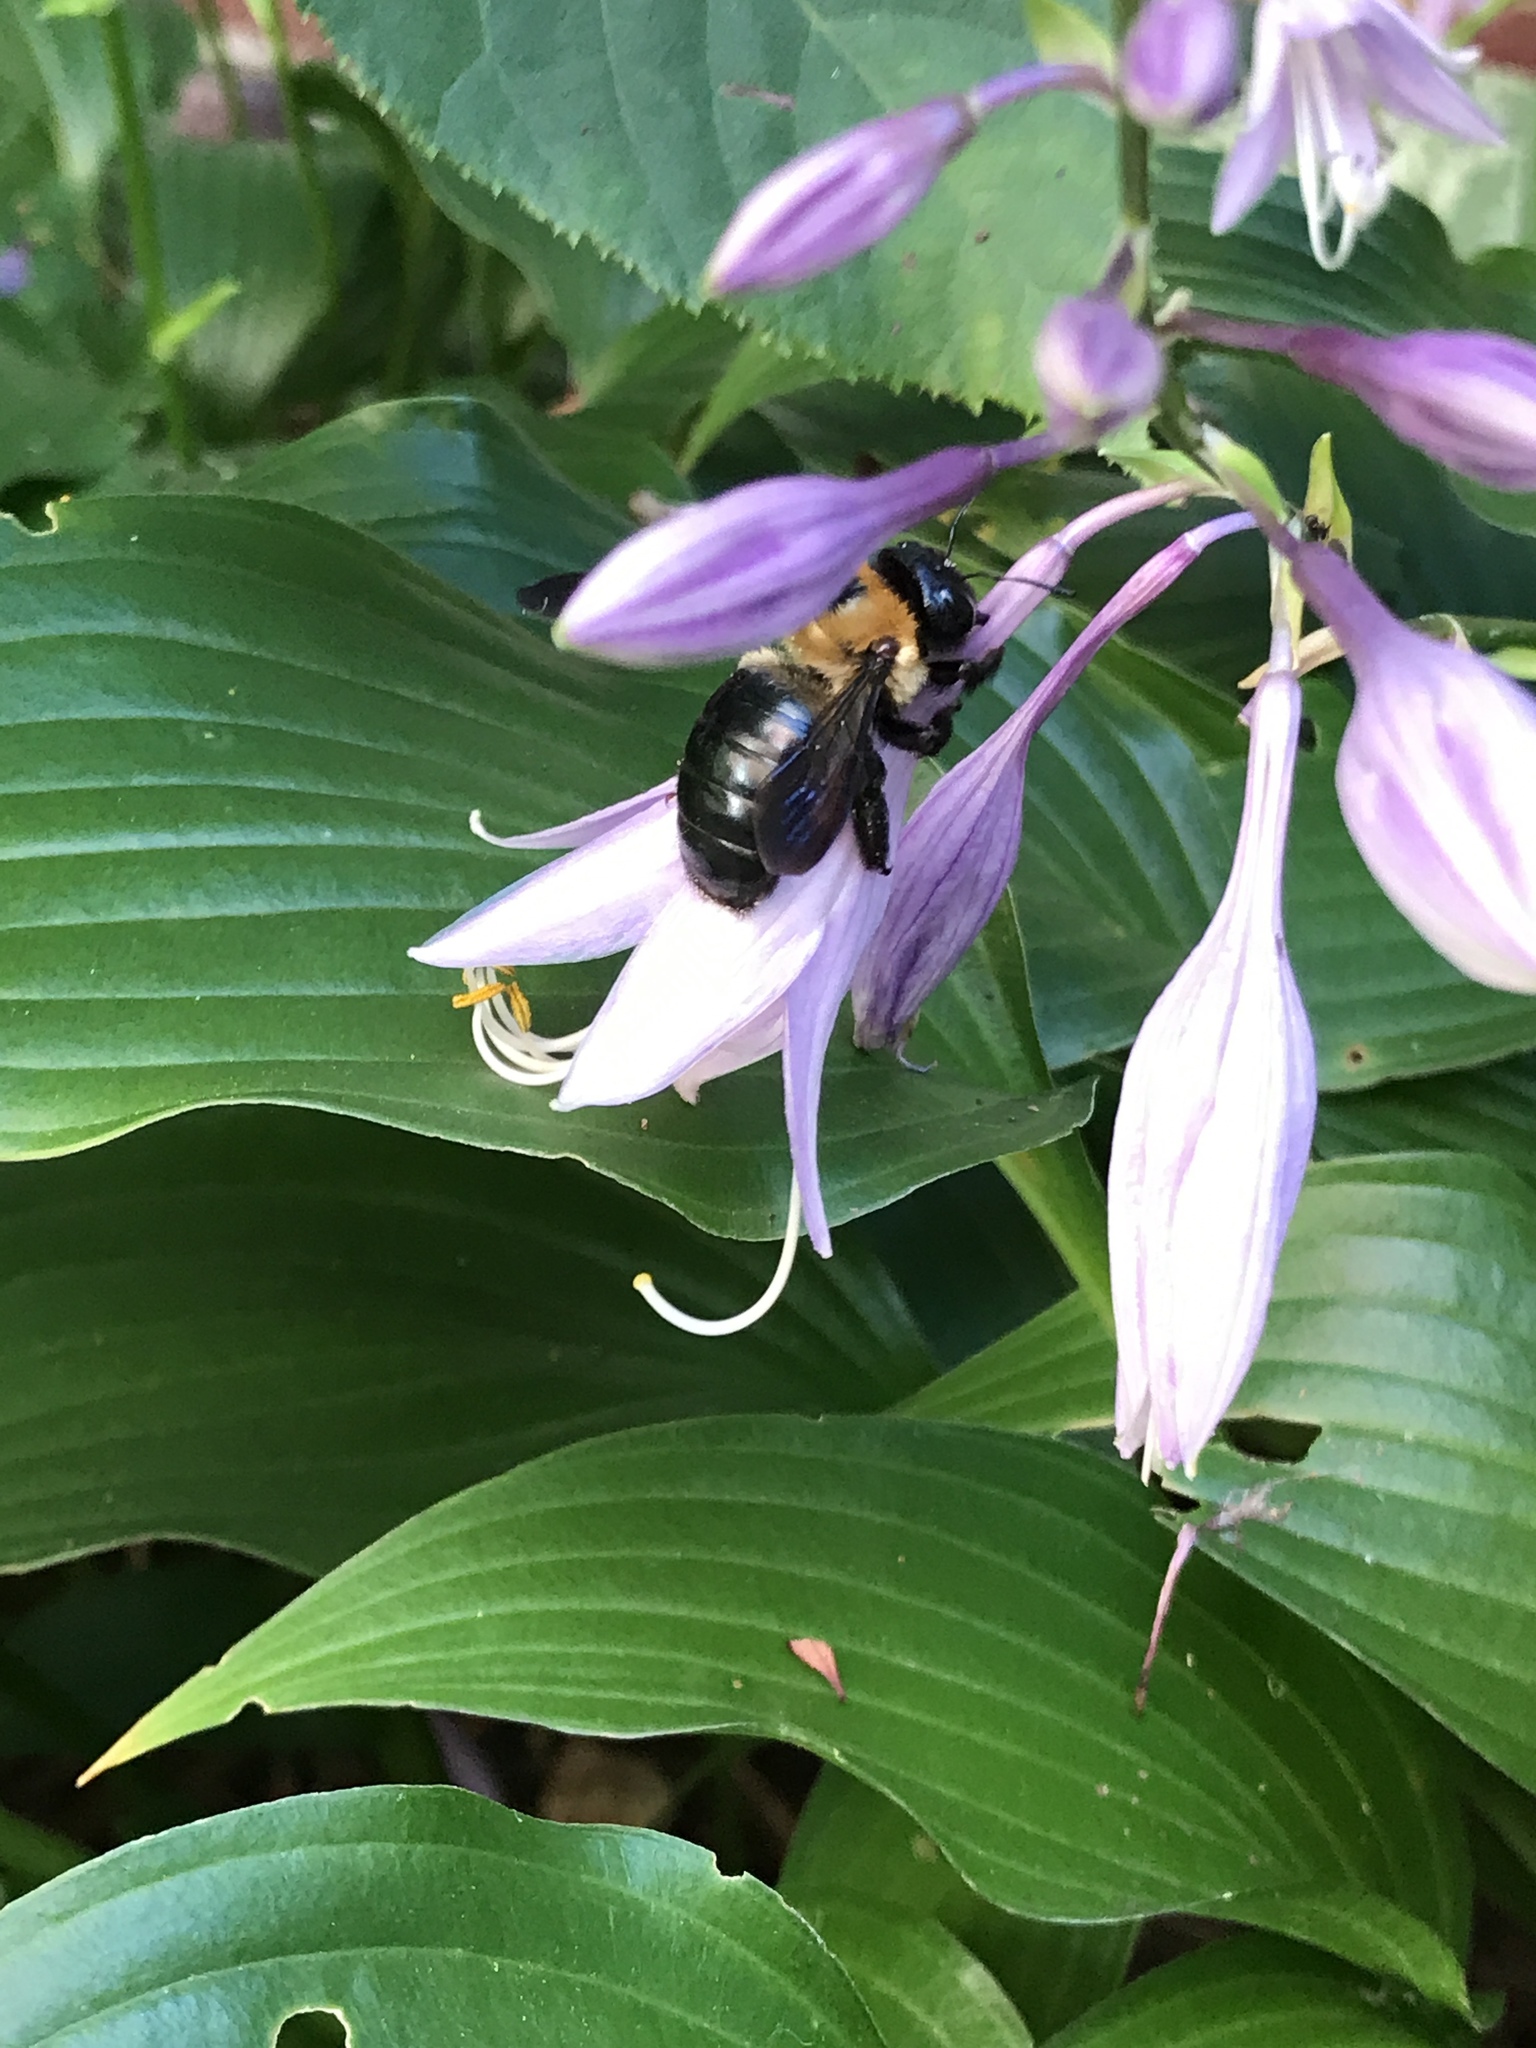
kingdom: Animalia
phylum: Arthropoda
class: Insecta
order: Hymenoptera
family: Apidae
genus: Xylocopa
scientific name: Xylocopa virginica
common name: Carpenter bee
